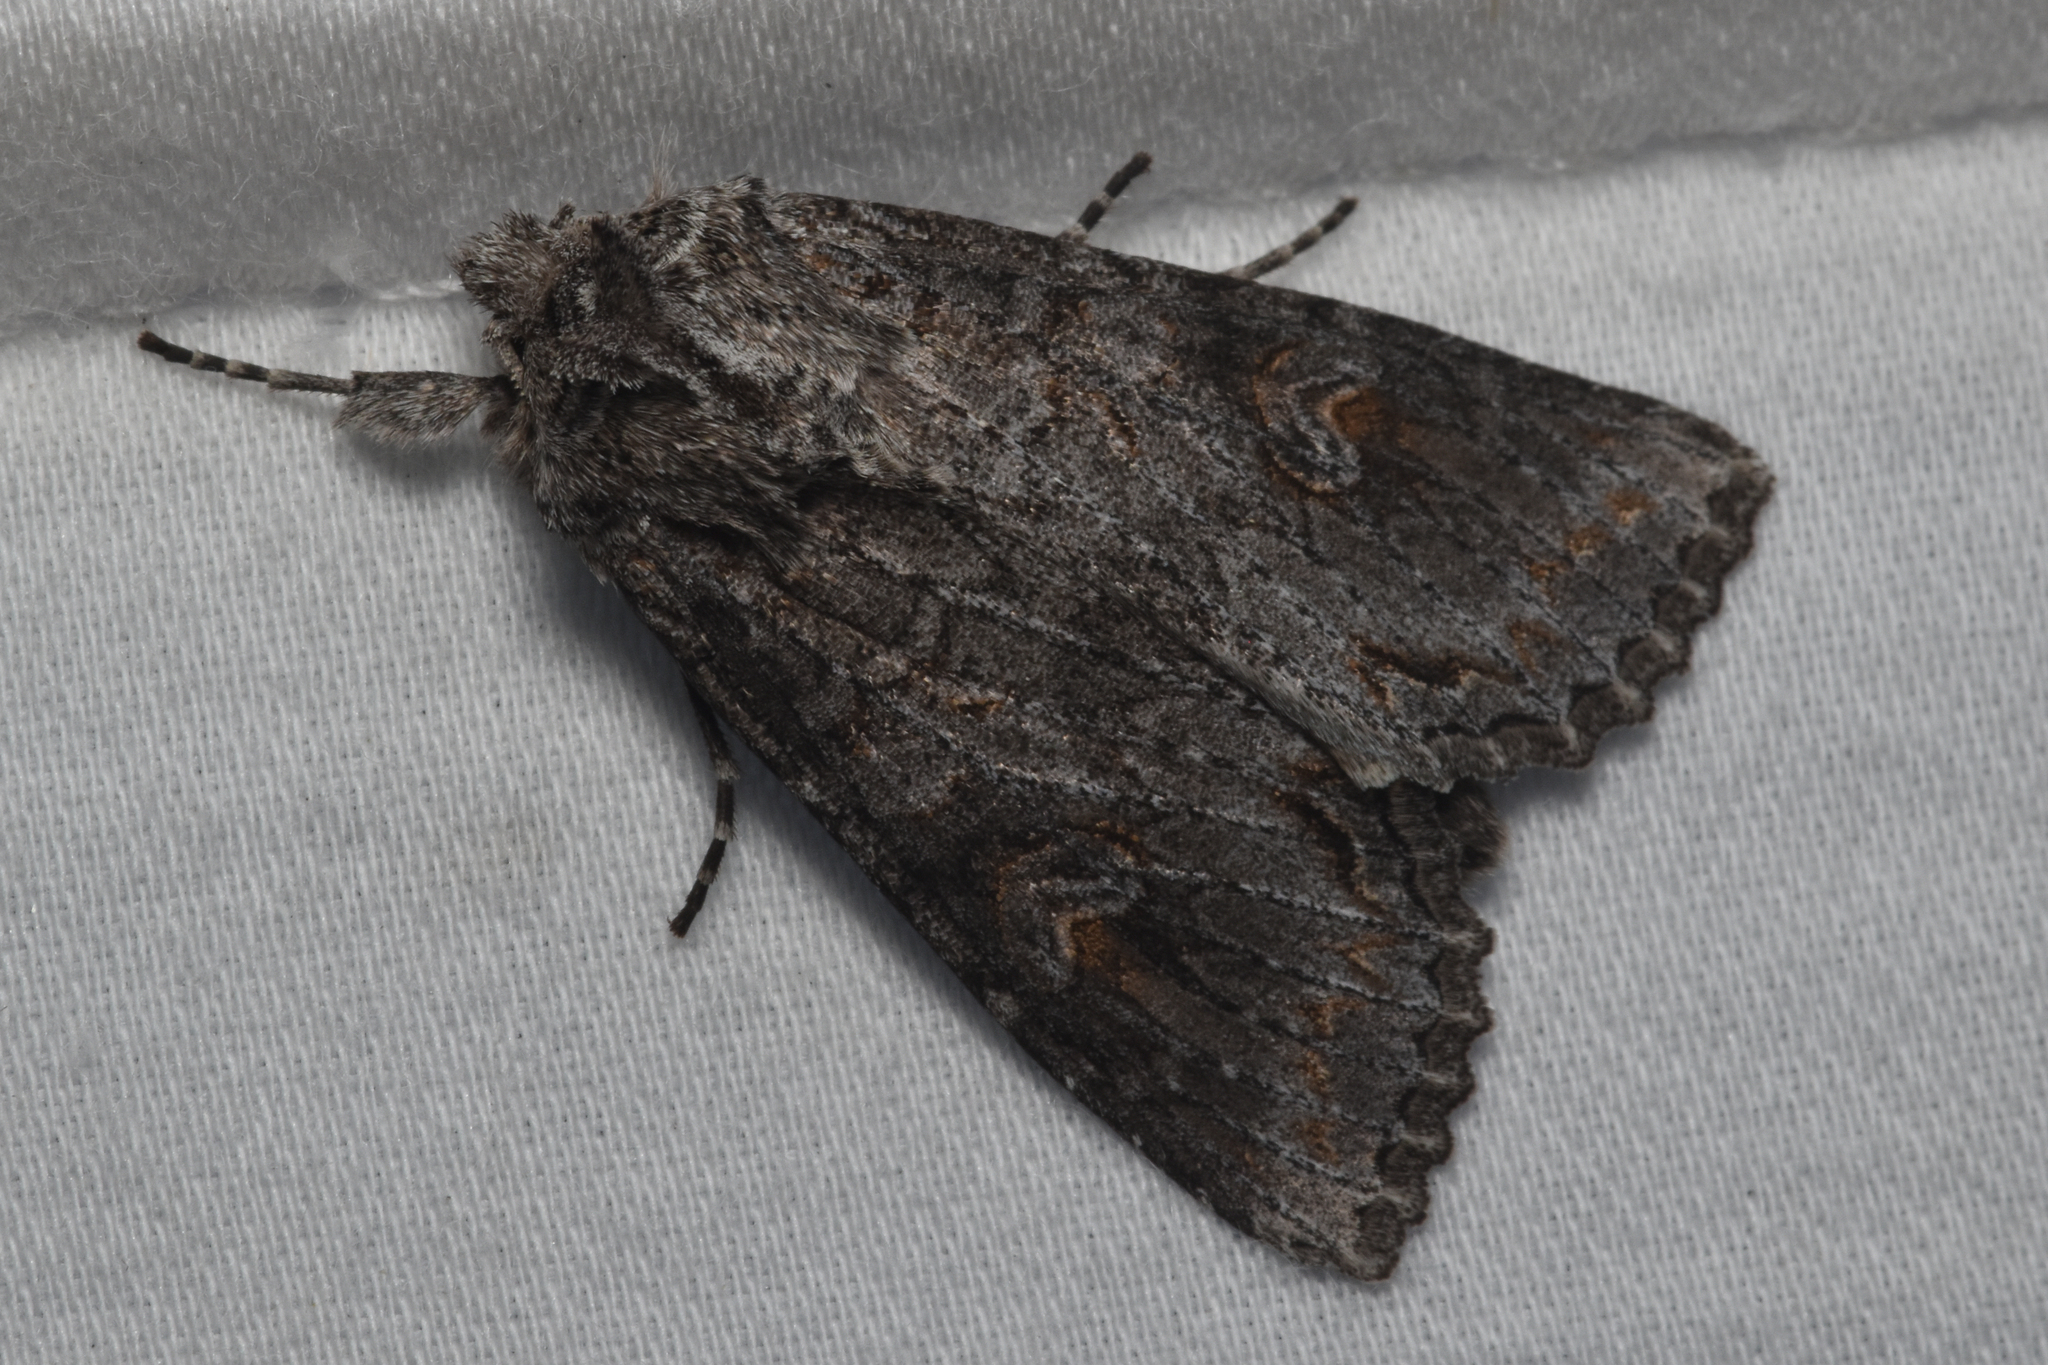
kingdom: Animalia
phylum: Arthropoda
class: Insecta
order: Lepidoptera
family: Noctuidae
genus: Polia
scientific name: Polia purpurissata
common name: Purple arches moth
